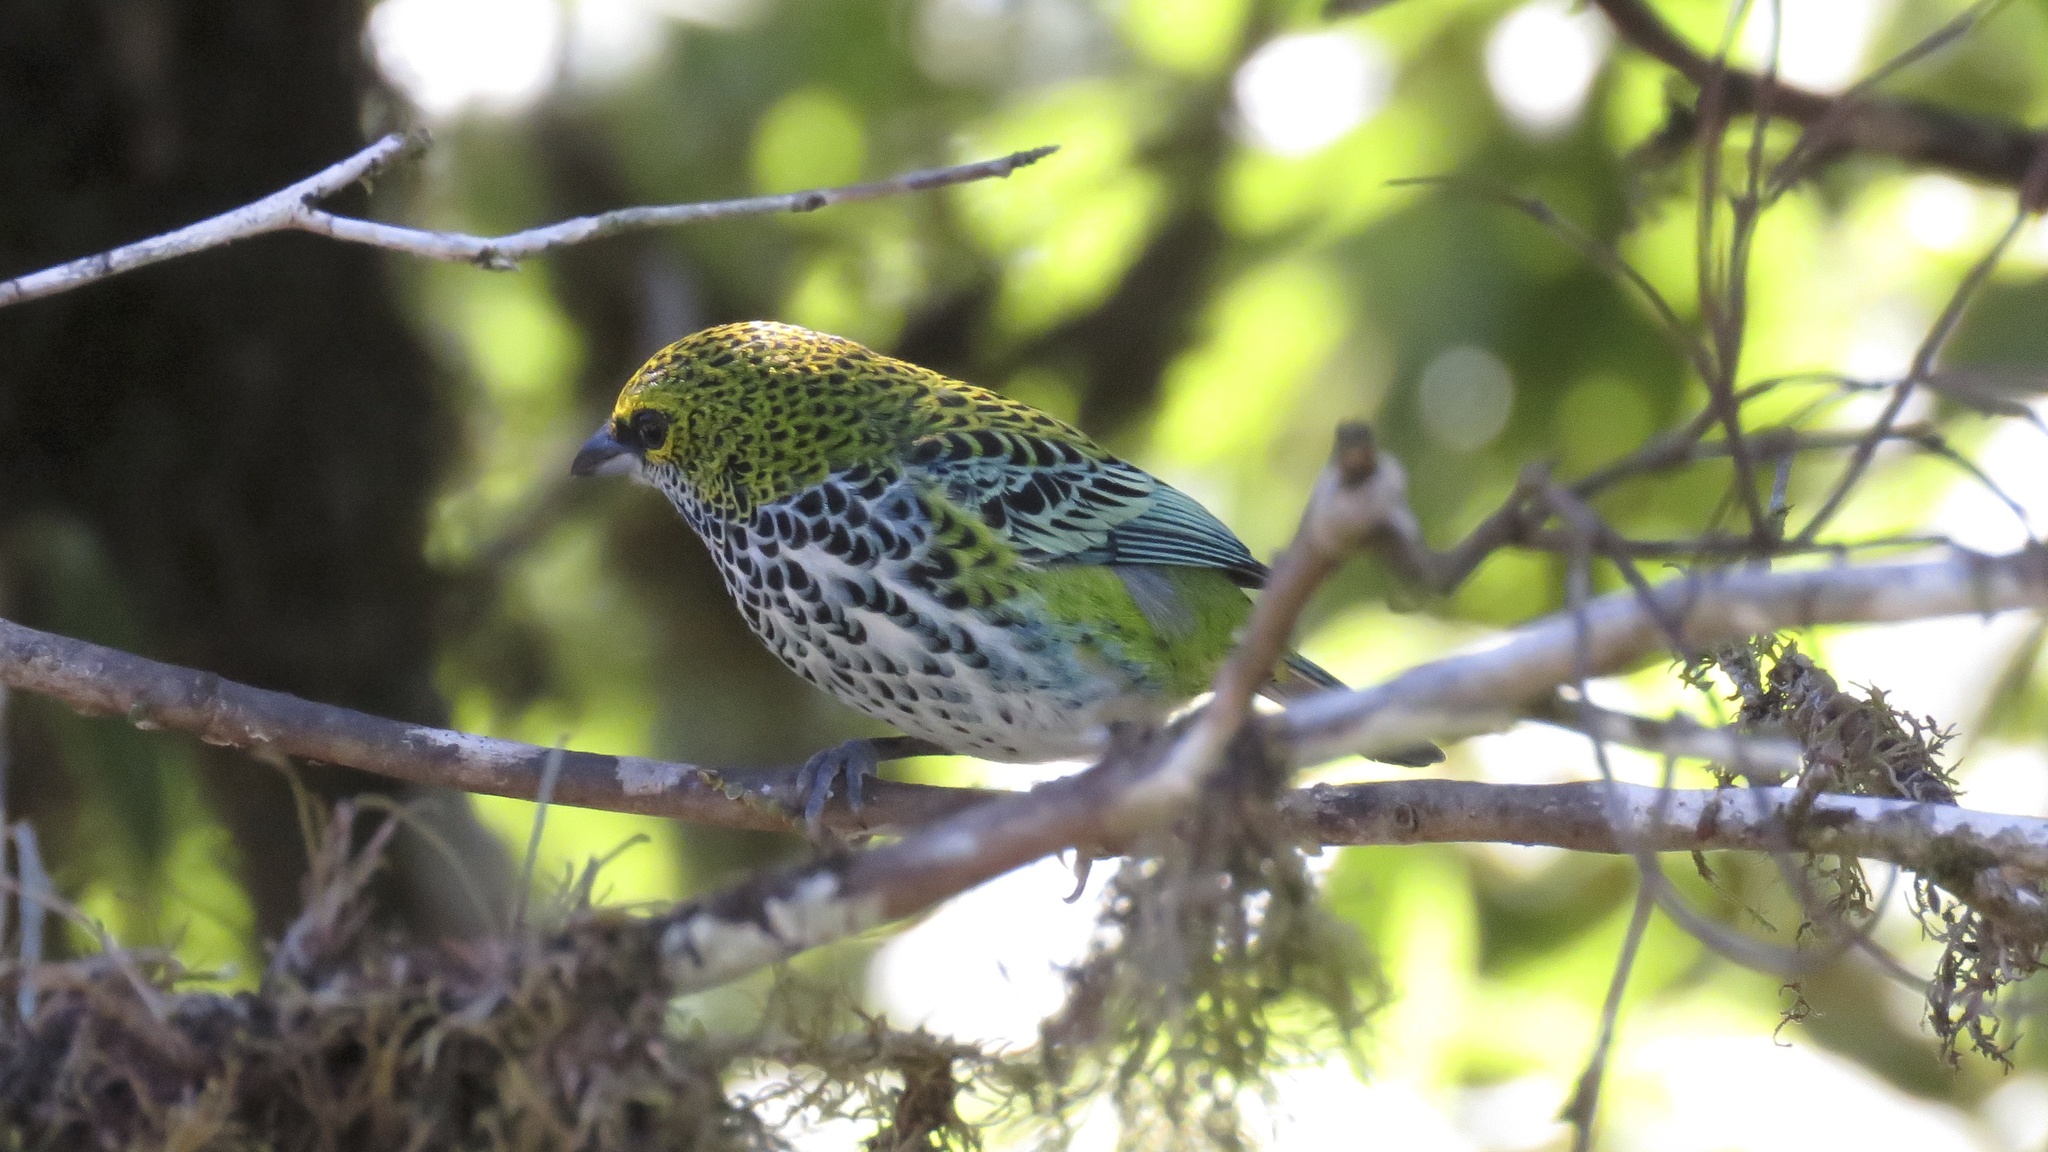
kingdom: Animalia
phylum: Chordata
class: Aves
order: Passeriformes
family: Thraupidae
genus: Ixothraupis
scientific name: Ixothraupis guttata
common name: Speckled tanager
